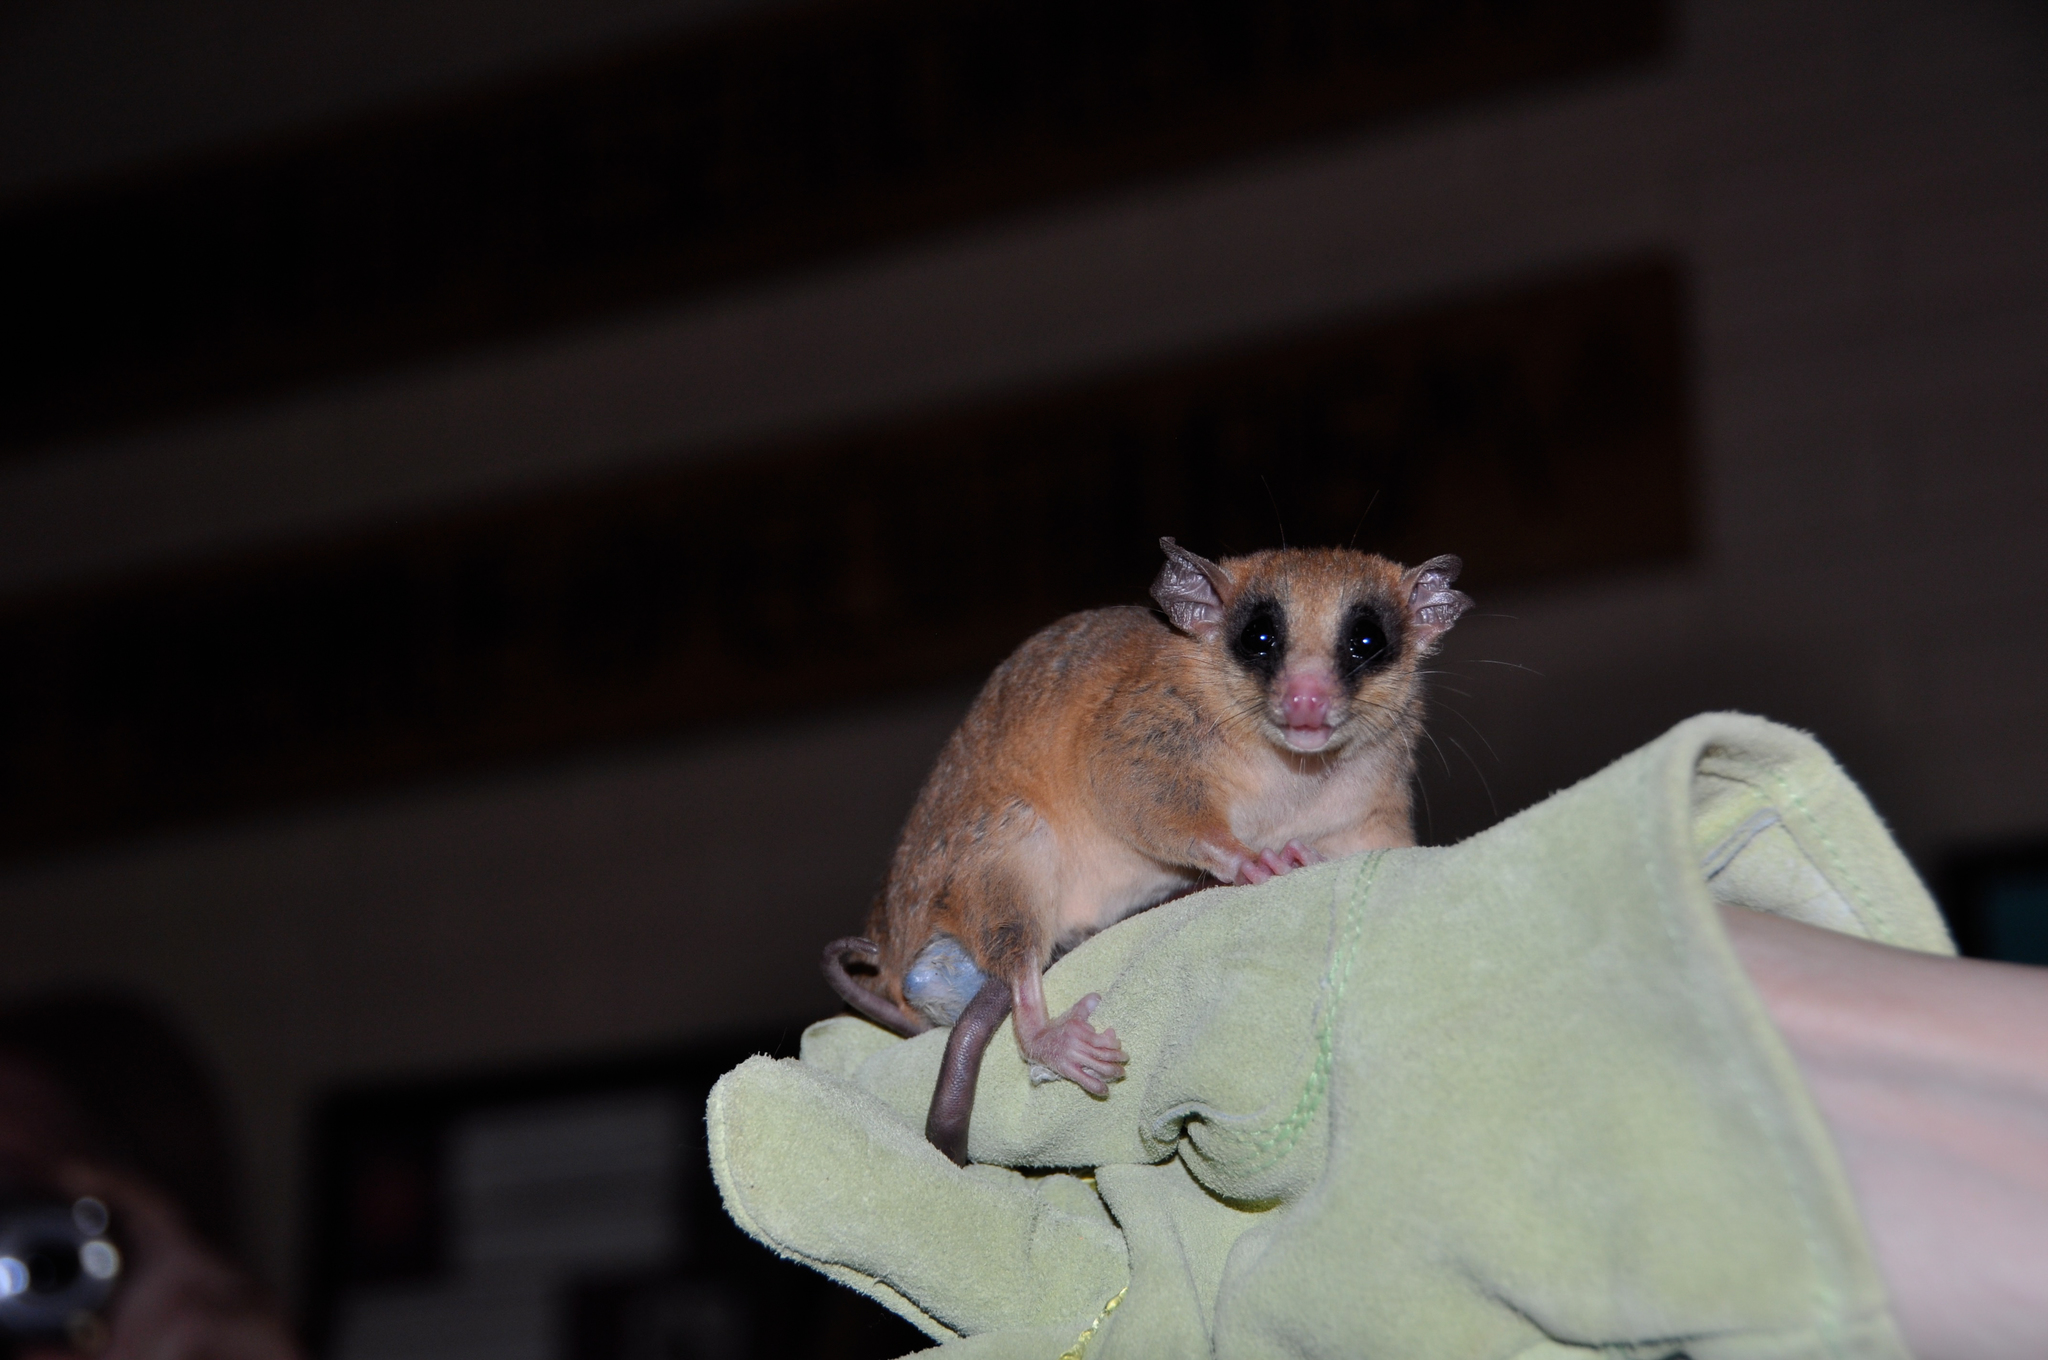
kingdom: Animalia
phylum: Chordata
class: Mammalia
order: Didelphimorphia
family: Didelphidae
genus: Marmosa
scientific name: Marmosa mexicana
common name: Mexican mouse opossum
